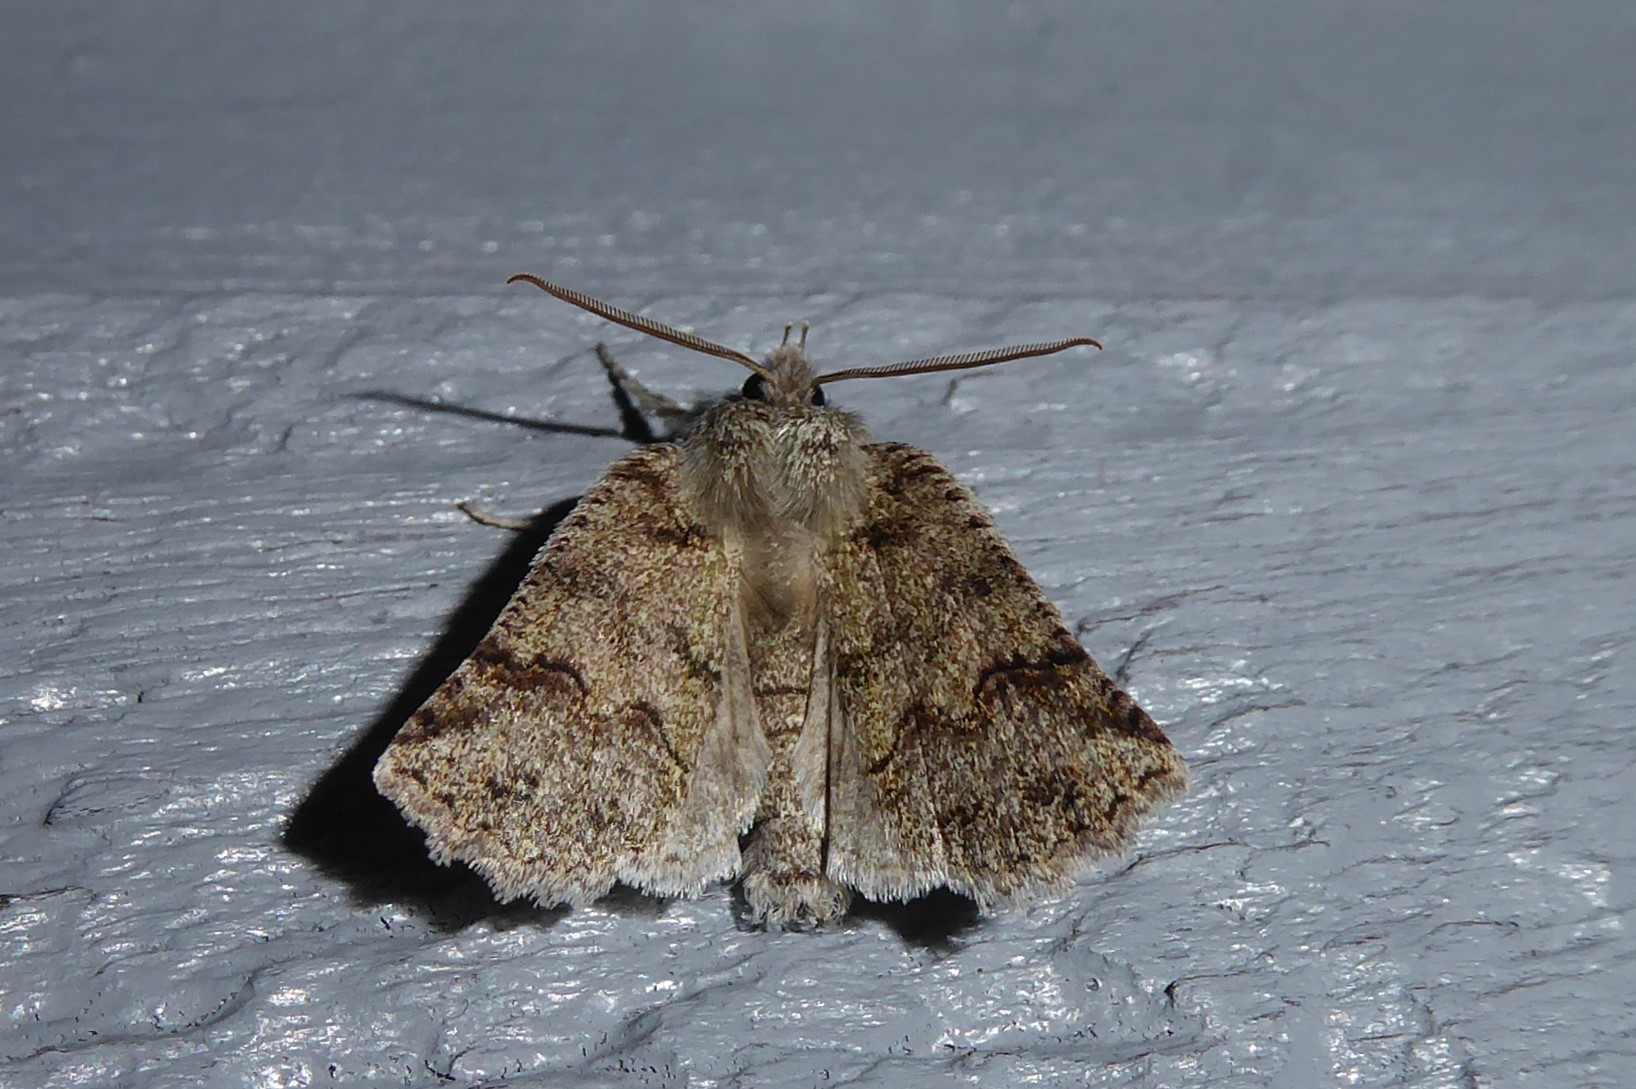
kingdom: Animalia
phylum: Arthropoda
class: Insecta
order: Lepidoptera
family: Geometridae
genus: Declana
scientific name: Declana floccosa
